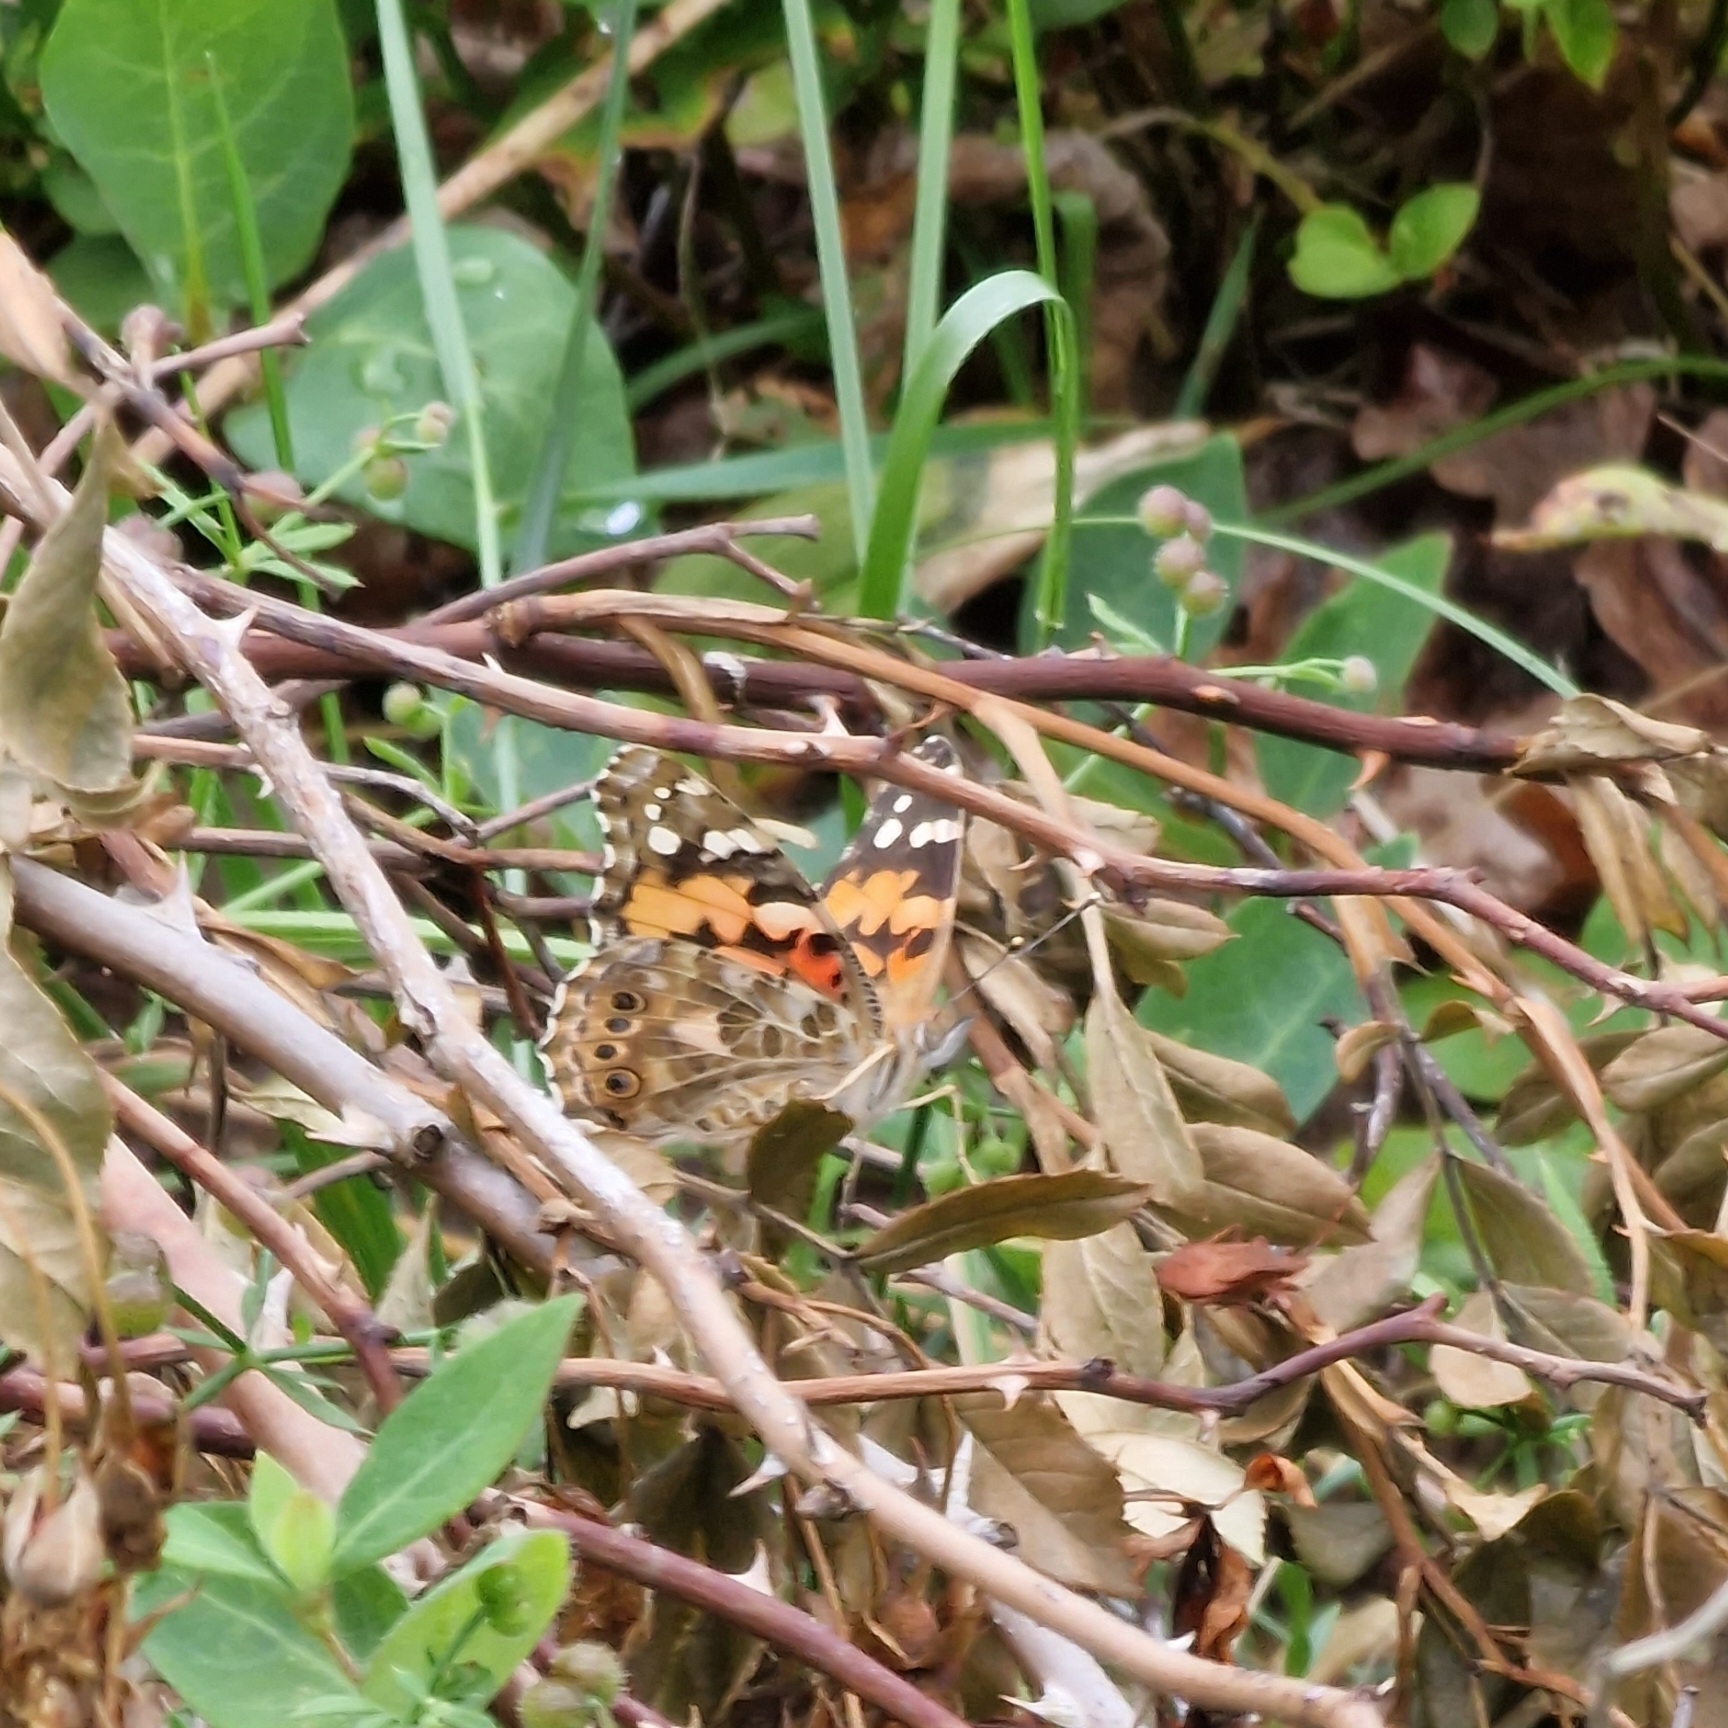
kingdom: Animalia
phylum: Arthropoda
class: Insecta
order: Lepidoptera
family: Nymphalidae
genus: Vanessa
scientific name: Vanessa cardui
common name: Painted lady
